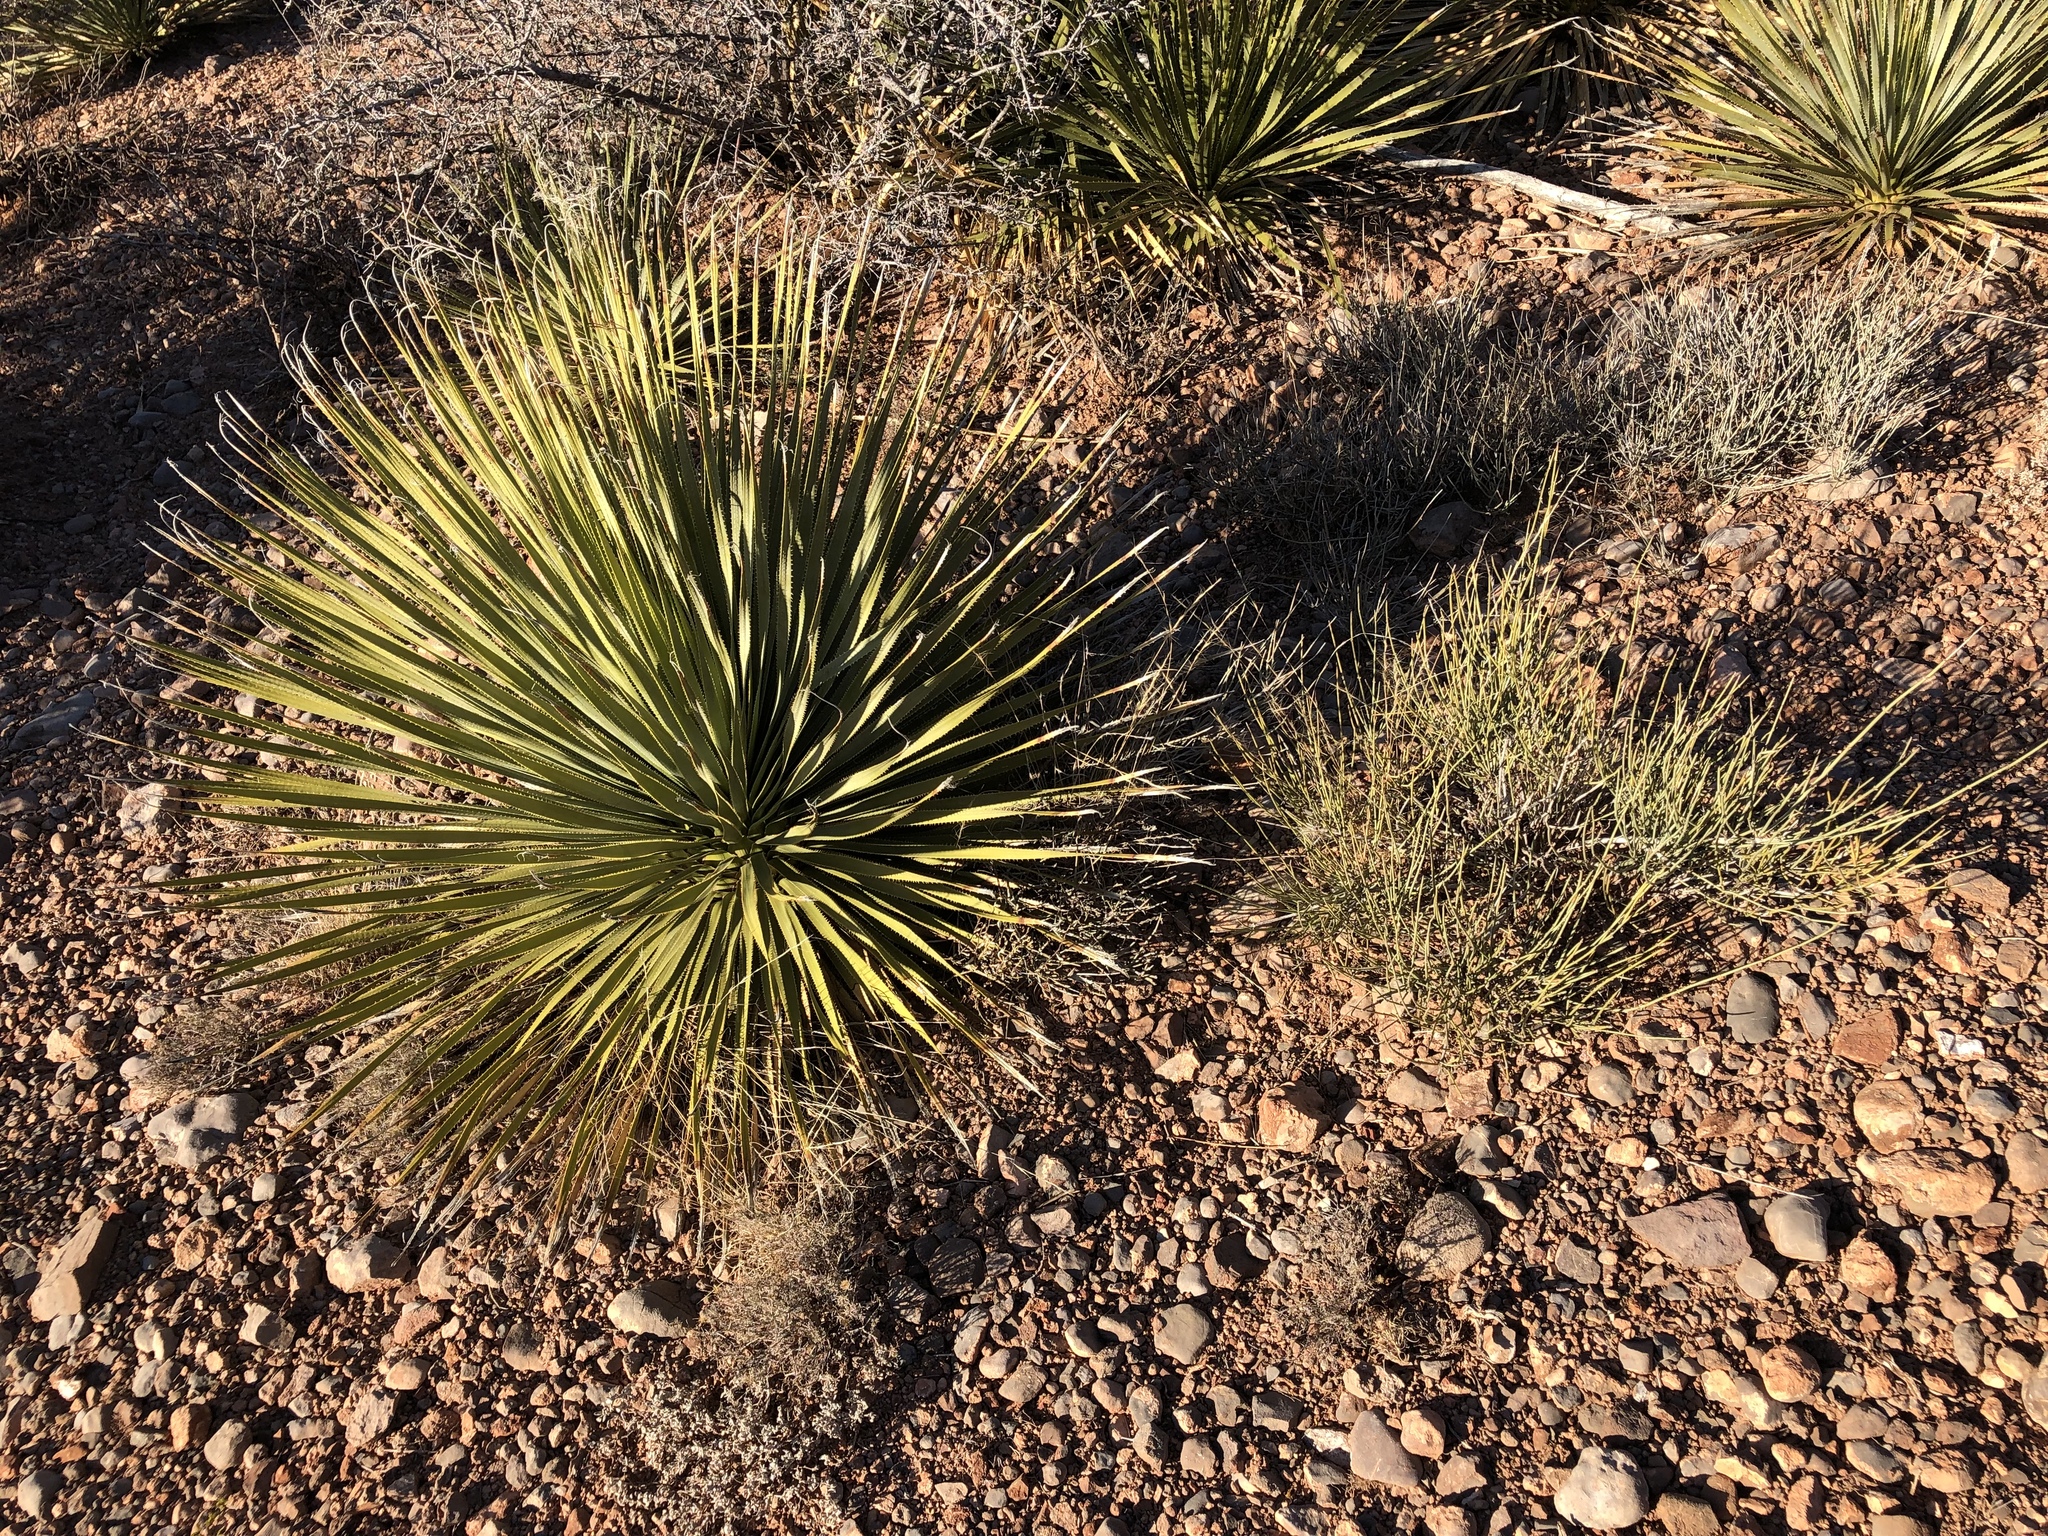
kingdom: Plantae
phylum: Tracheophyta
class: Liliopsida
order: Asparagales
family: Asparagaceae
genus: Dasylirion
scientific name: Dasylirion wheeleri
